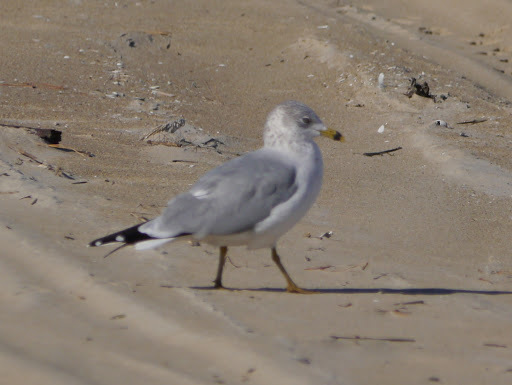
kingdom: Animalia
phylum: Chordata
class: Aves
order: Charadriiformes
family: Laridae
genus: Larus
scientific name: Larus delawarensis
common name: Ring-billed gull
